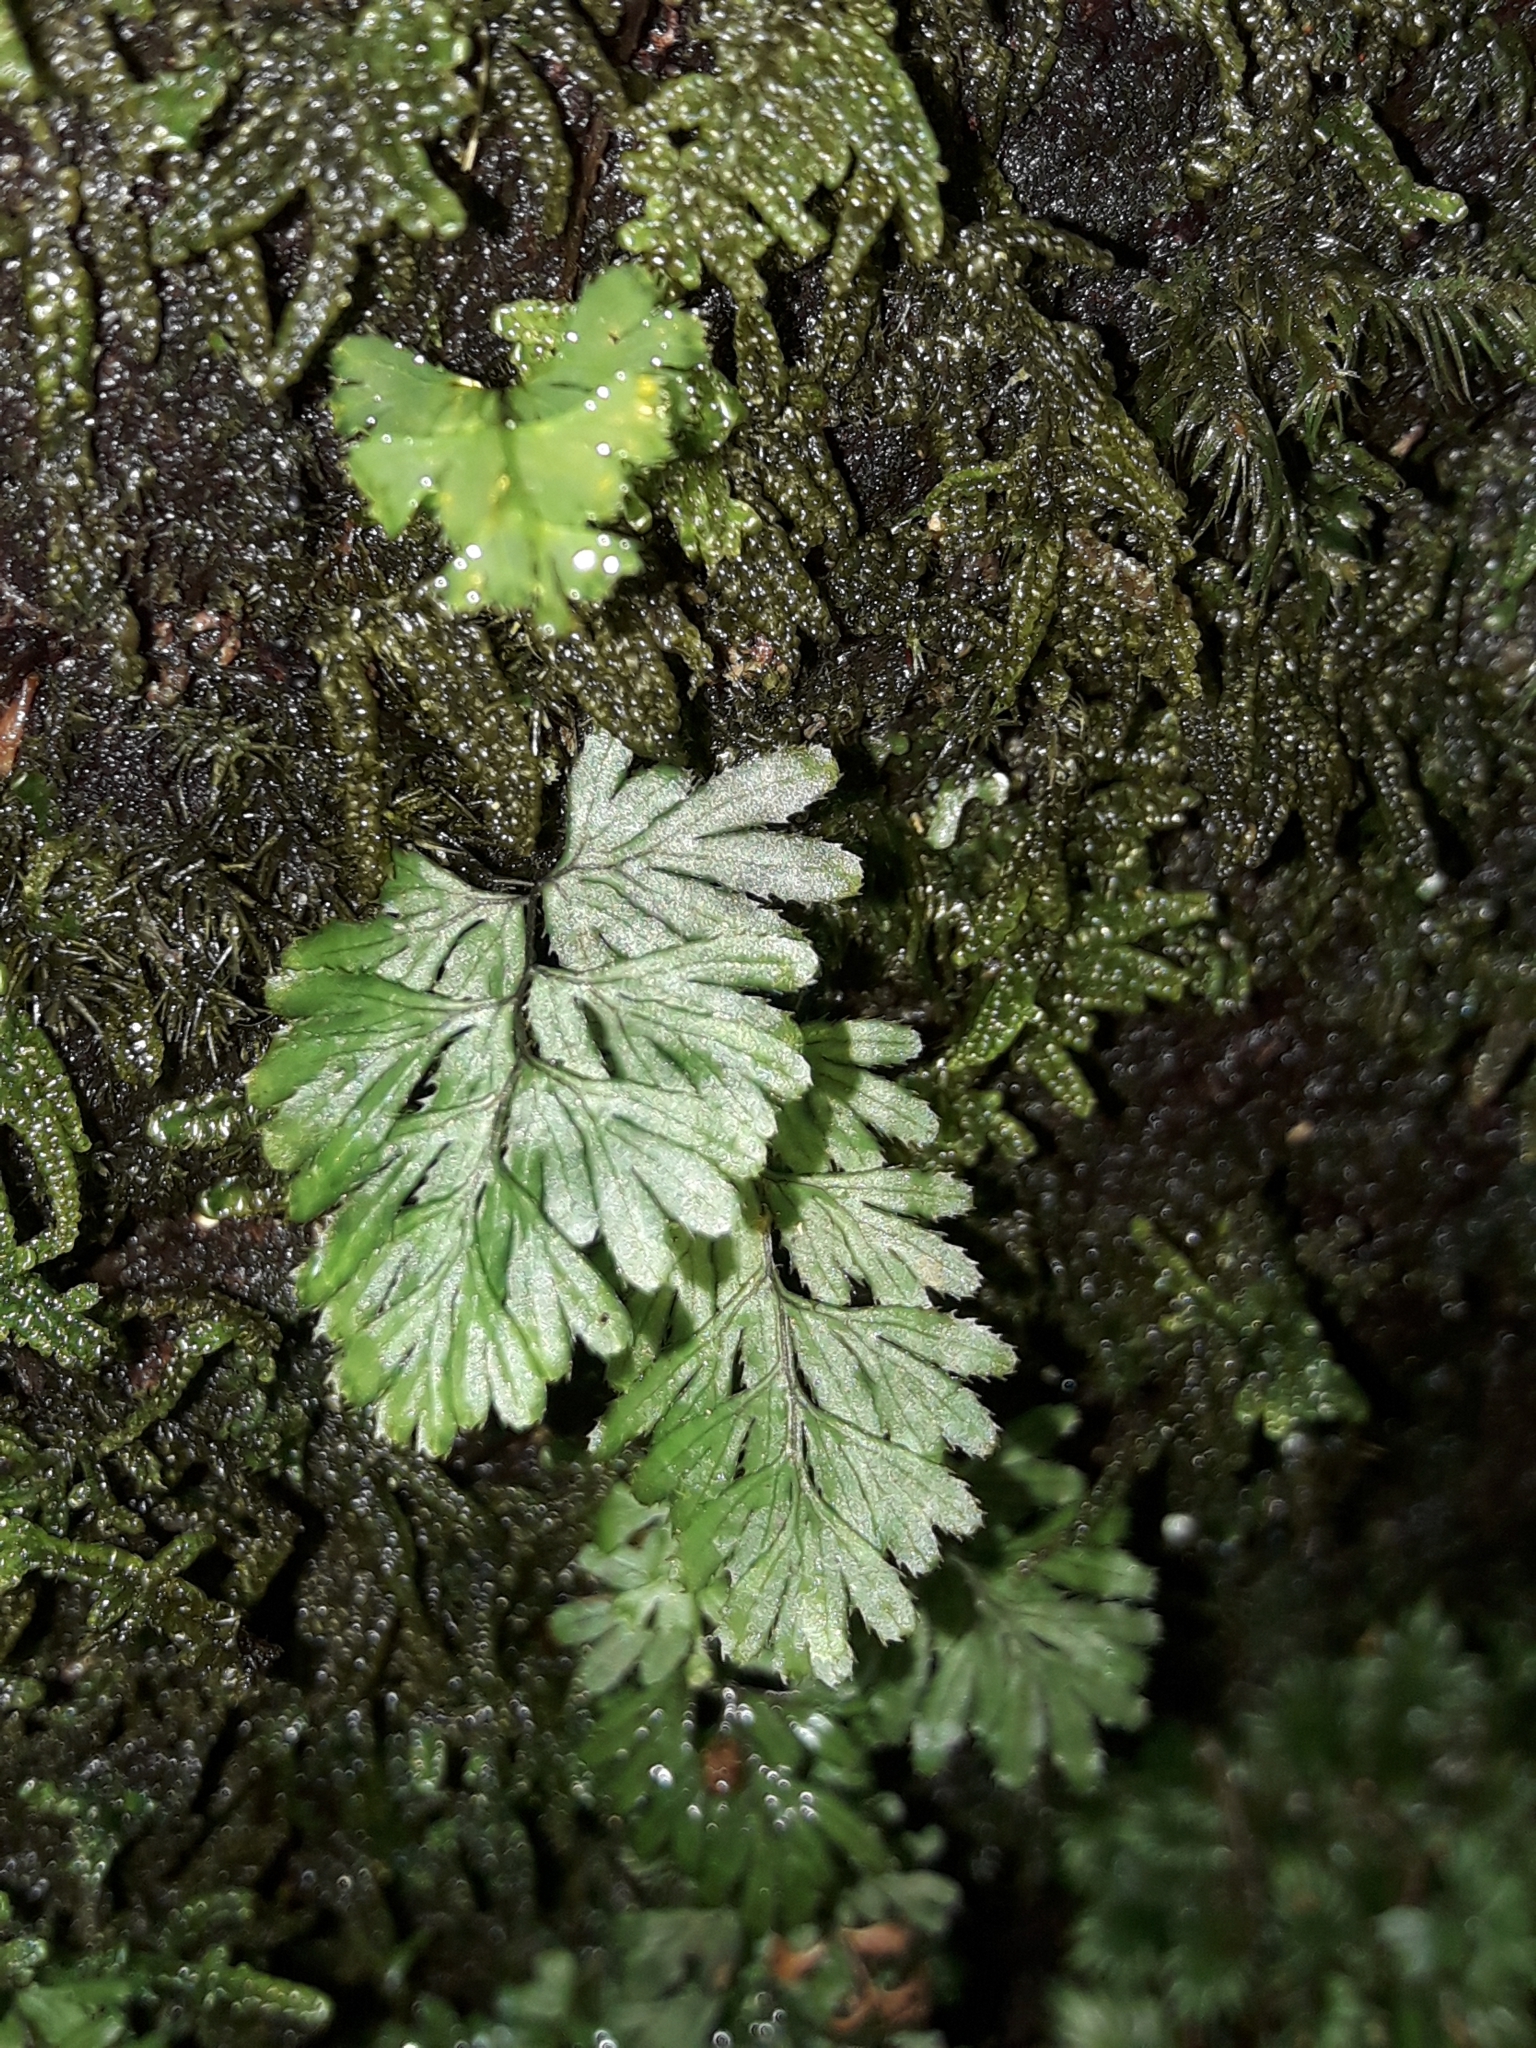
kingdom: Plantae
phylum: Tracheophyta
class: Polypodiopsida
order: Hymenophyllales
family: Hymenophyllaceae
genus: Hymenophyllum
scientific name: Hymenophyllum revolutum
